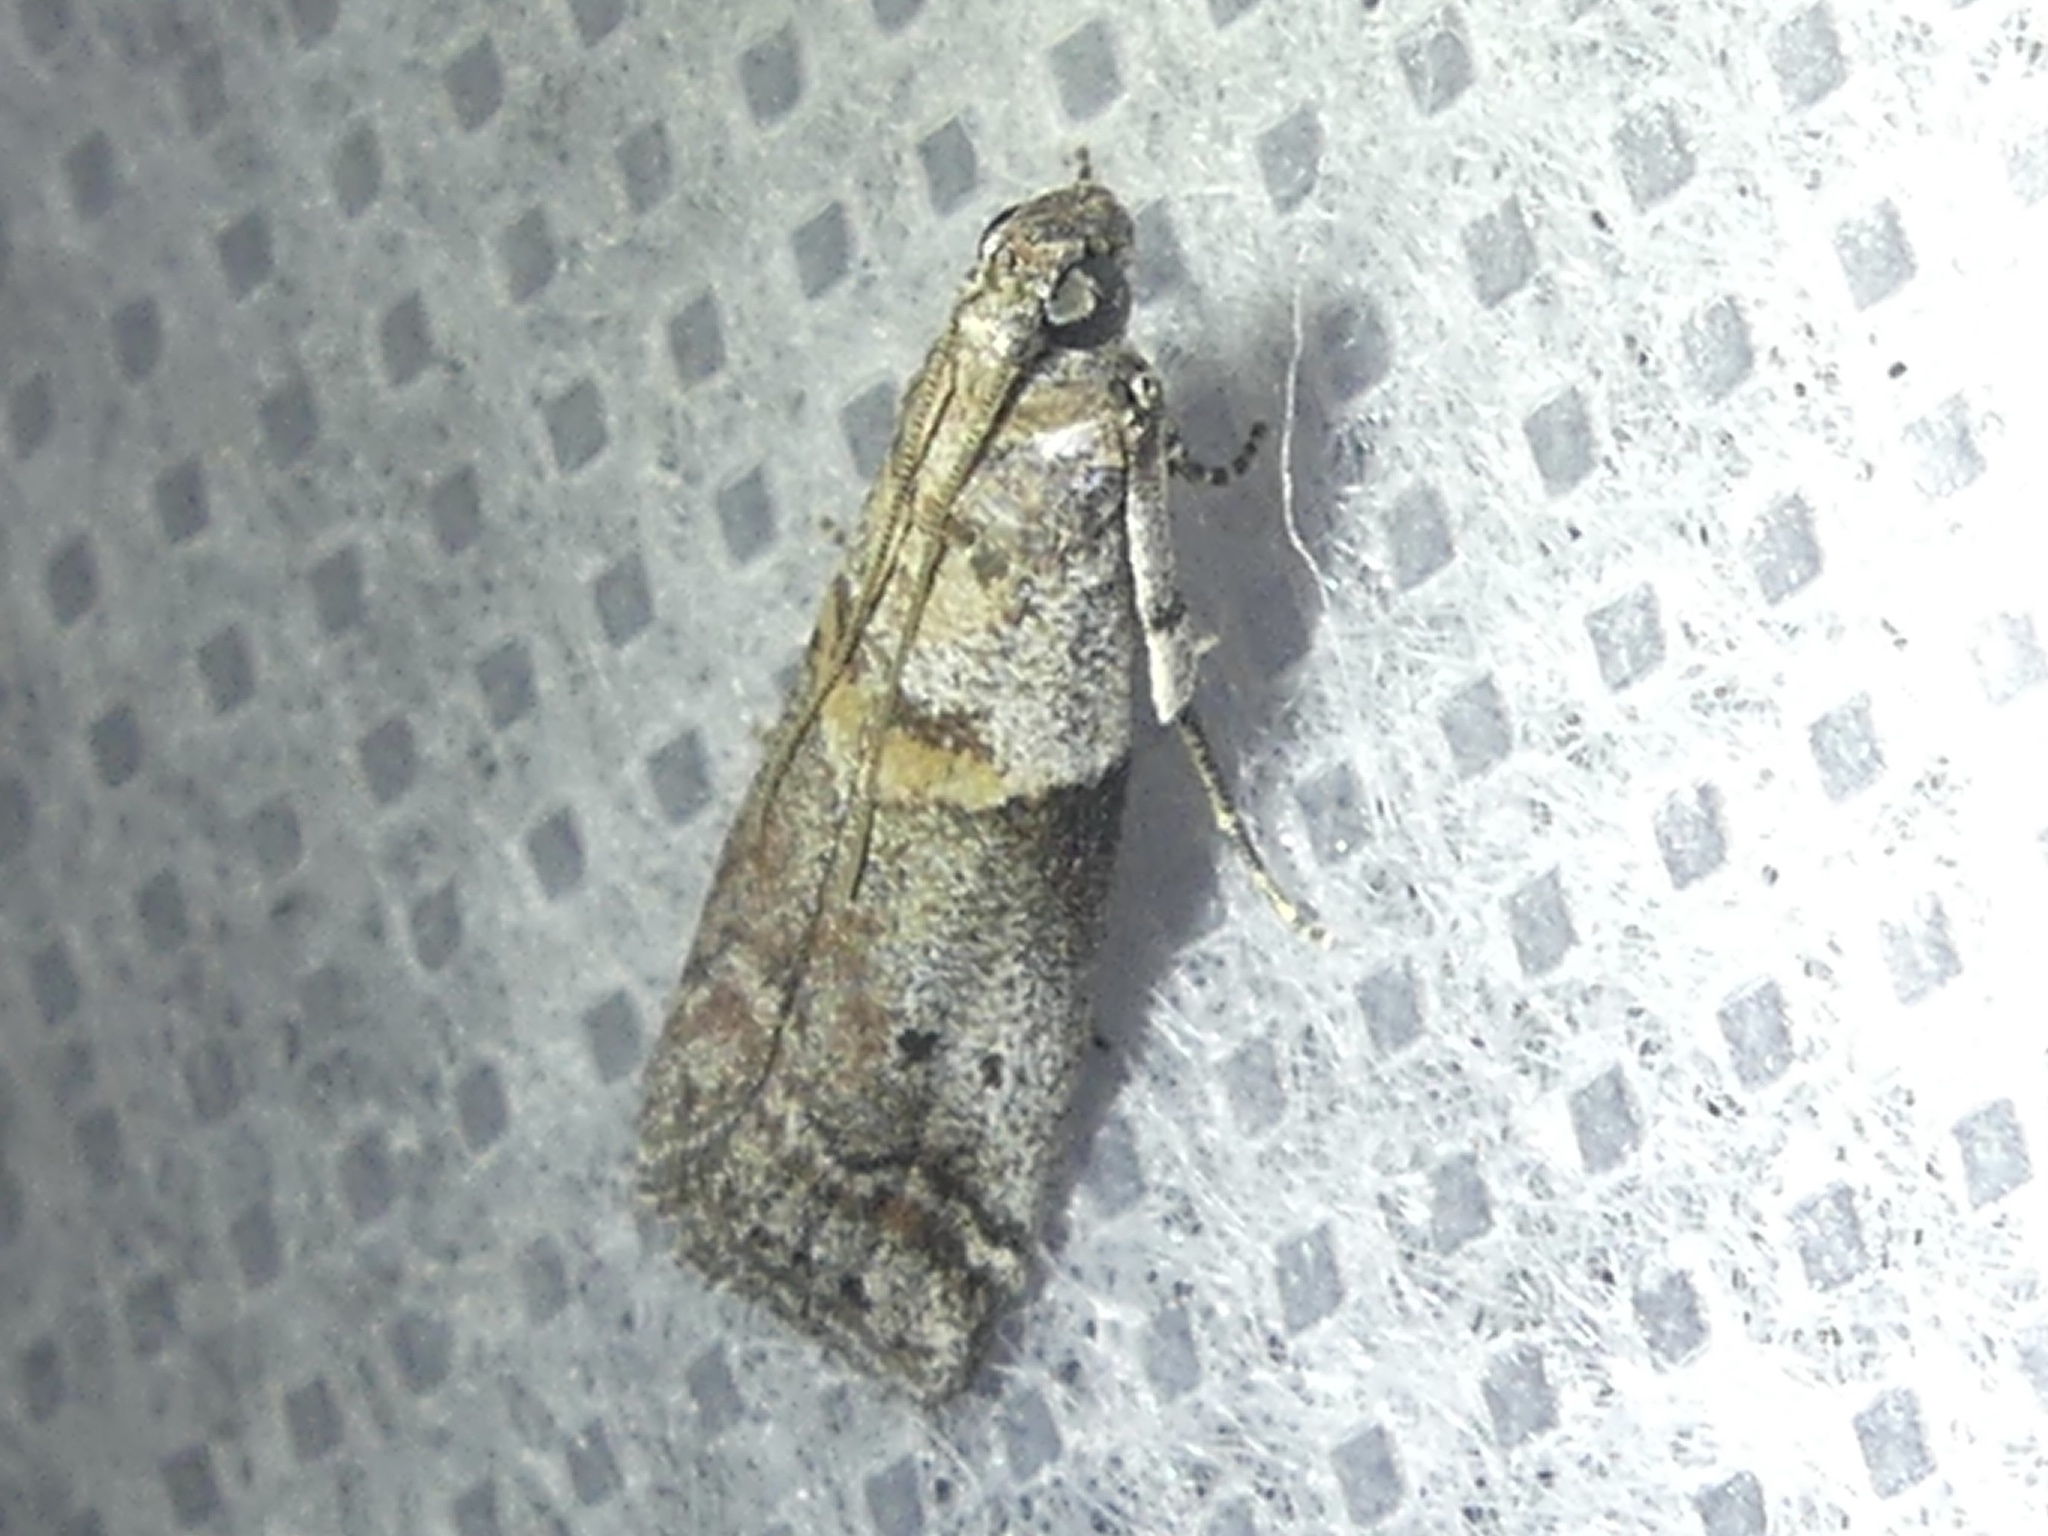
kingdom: Animalia
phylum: Arthropoda
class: Insecta
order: Lepidoptera
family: Pyralidae
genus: Acrobasis
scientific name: Acrobasis consociella
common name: Broad-barred knot-horn
